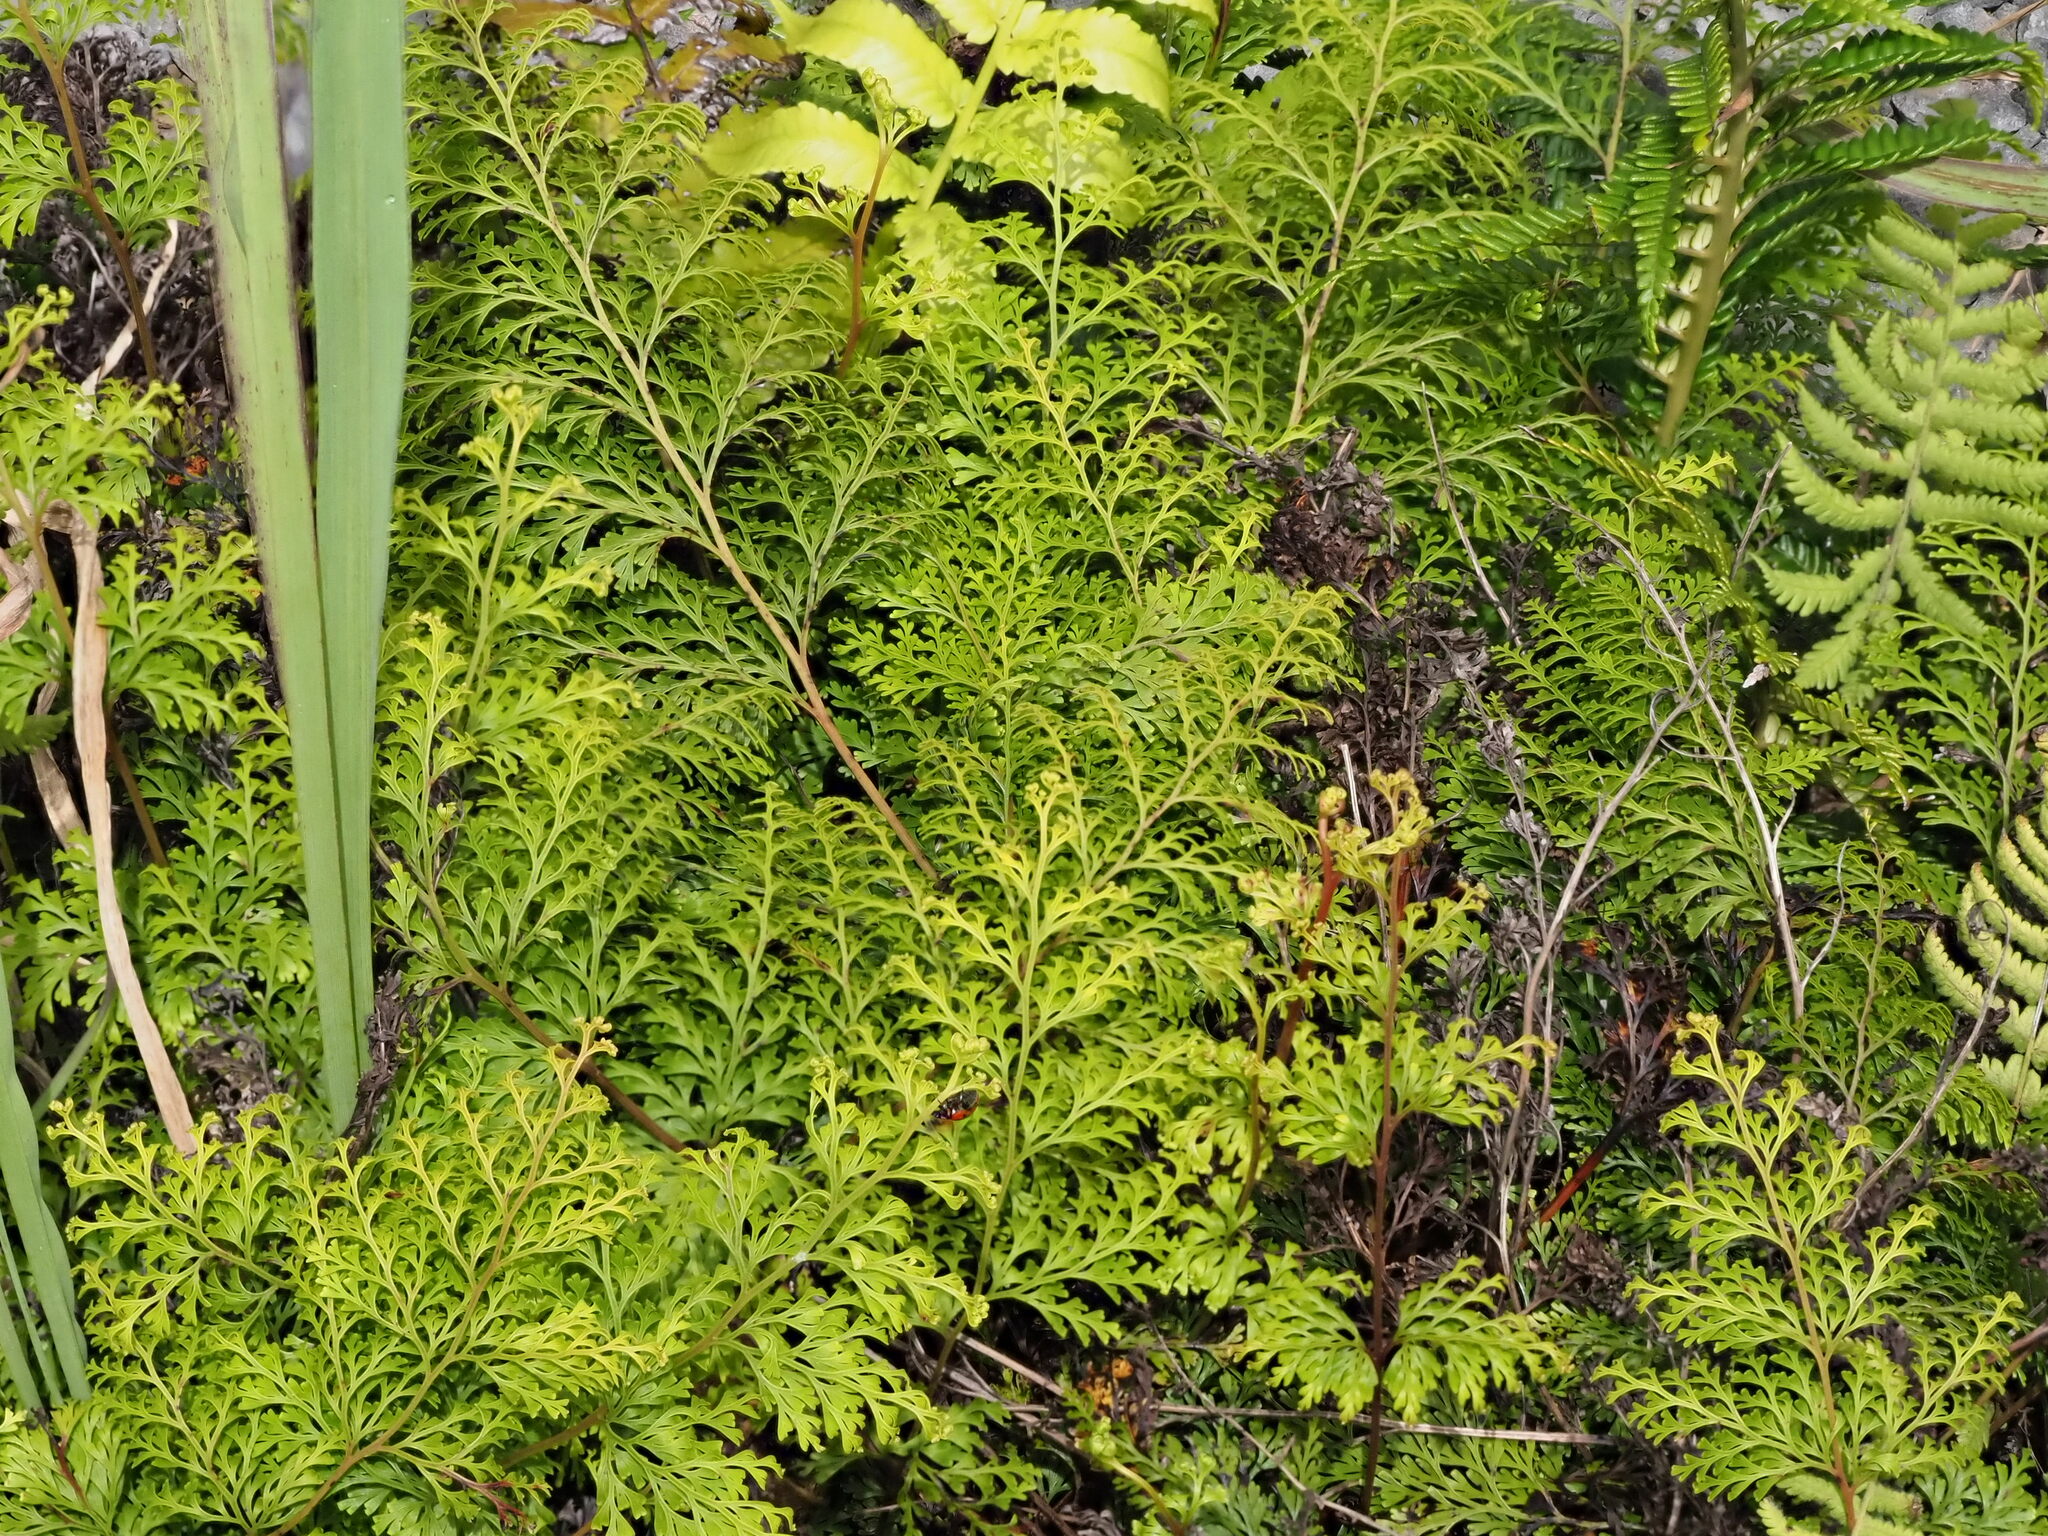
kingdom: Plantae
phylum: Tracheophyta
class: Polypodiopsida
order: Polypodiales
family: Lindsaeaceae
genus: Odontosoria
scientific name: Odontosoria chinensis
